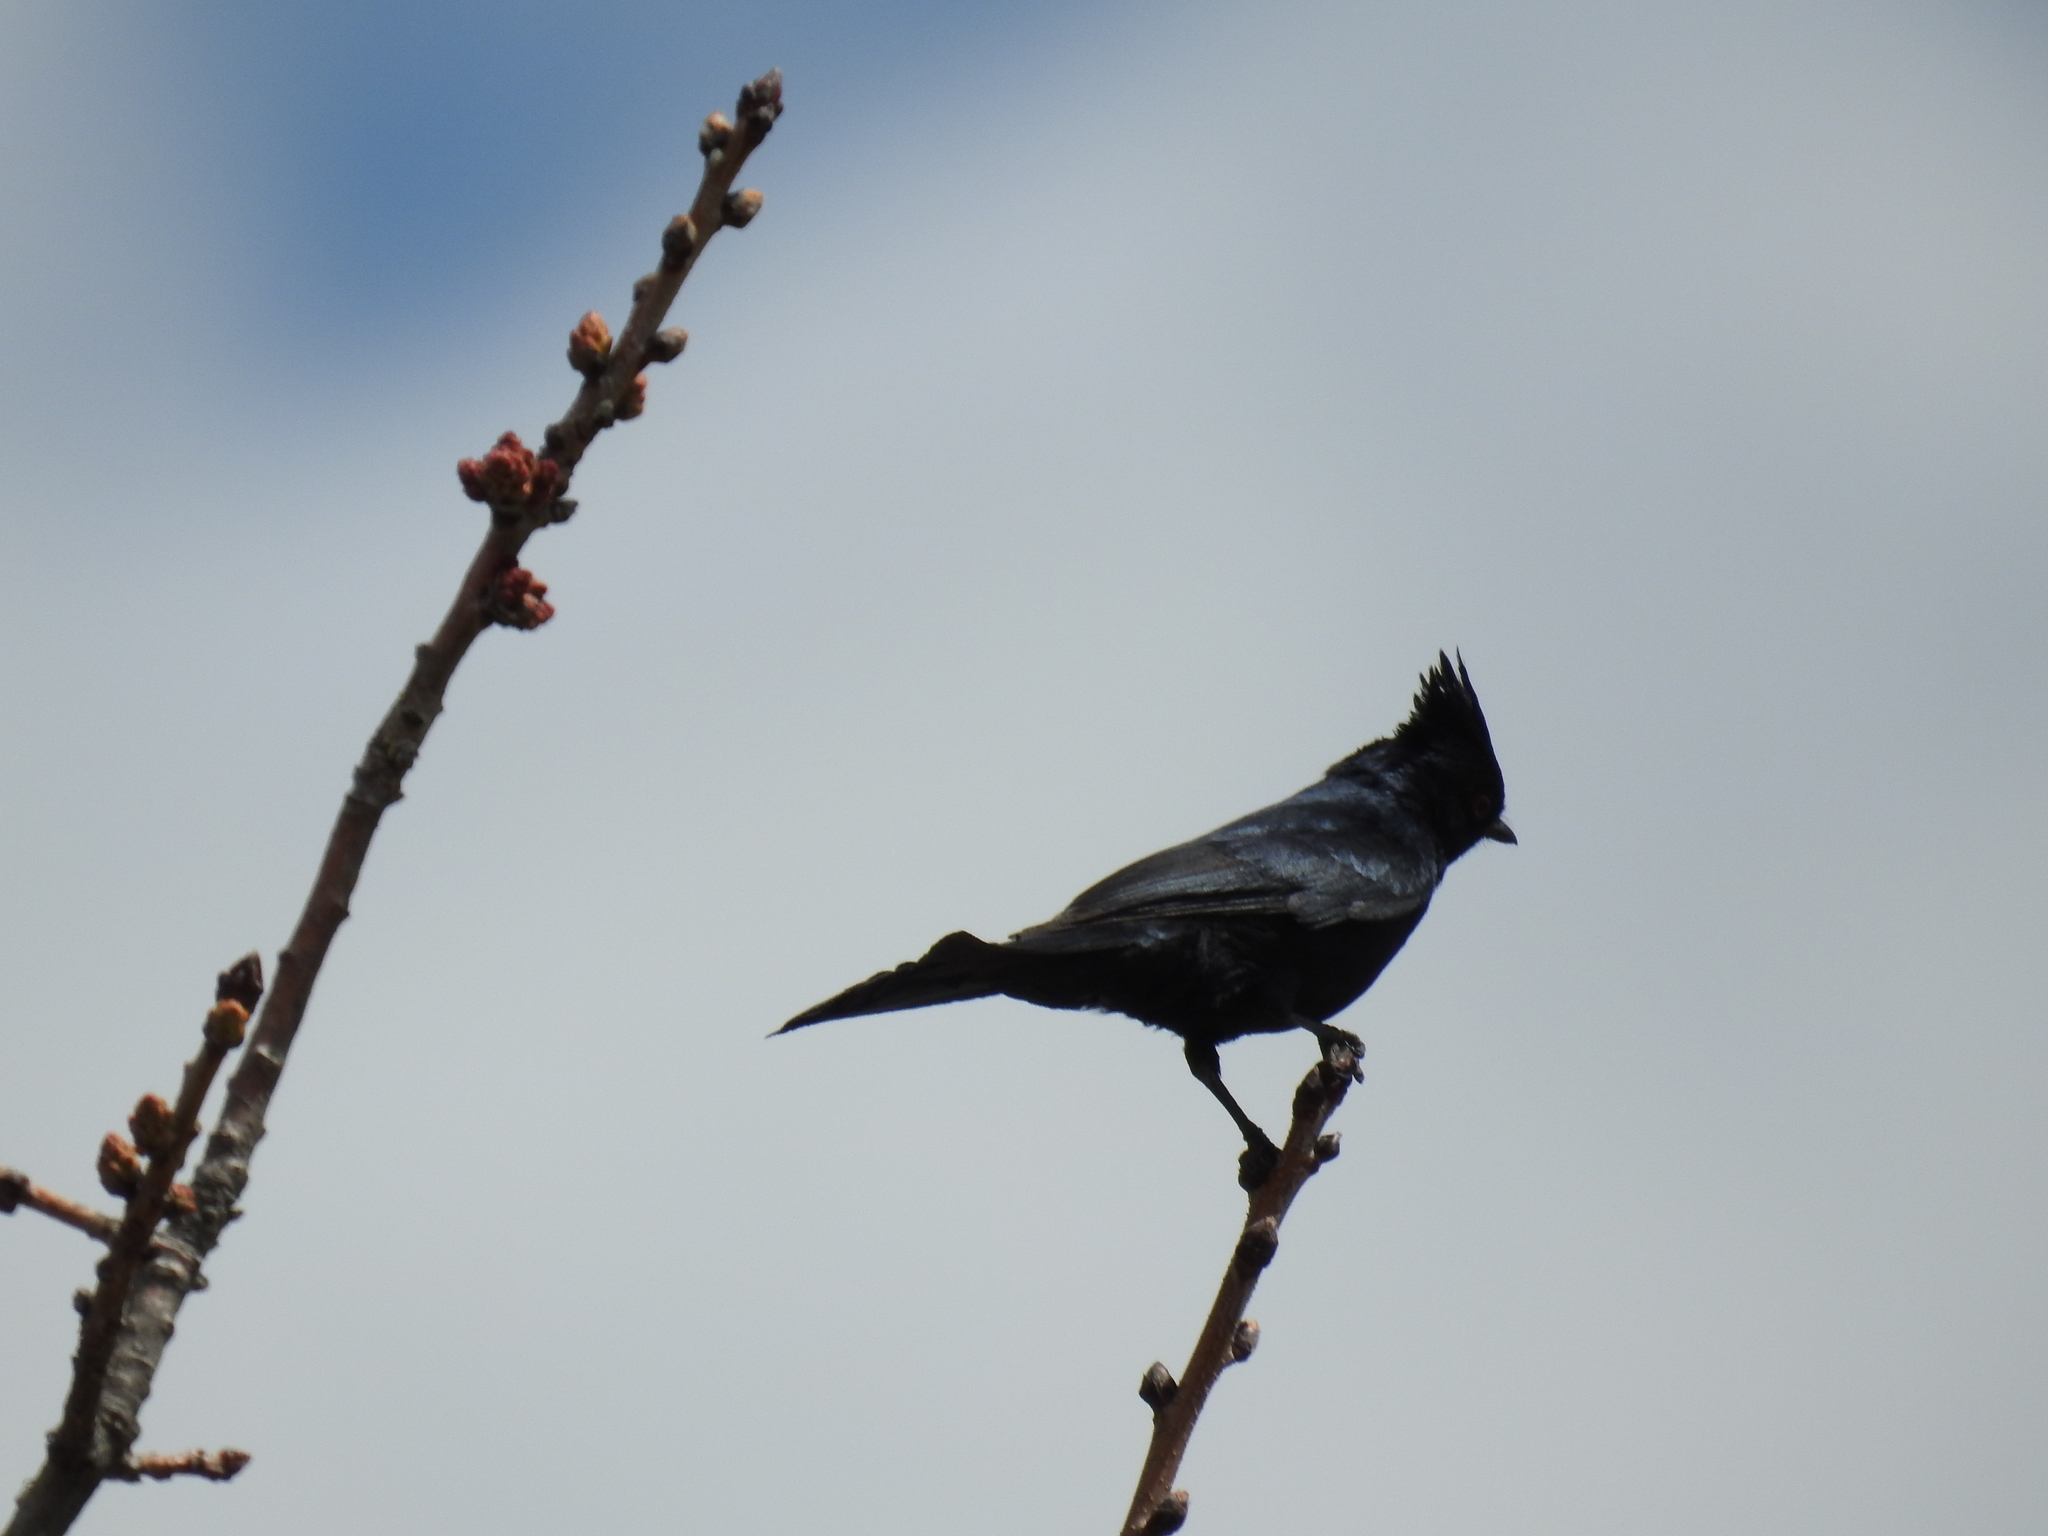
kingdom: Animalia
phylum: Chordata
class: Aves
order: Passeriformes
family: Ptilogonatidae
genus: Phainopepla
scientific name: Phainopepla nitens
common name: Phainopepla
